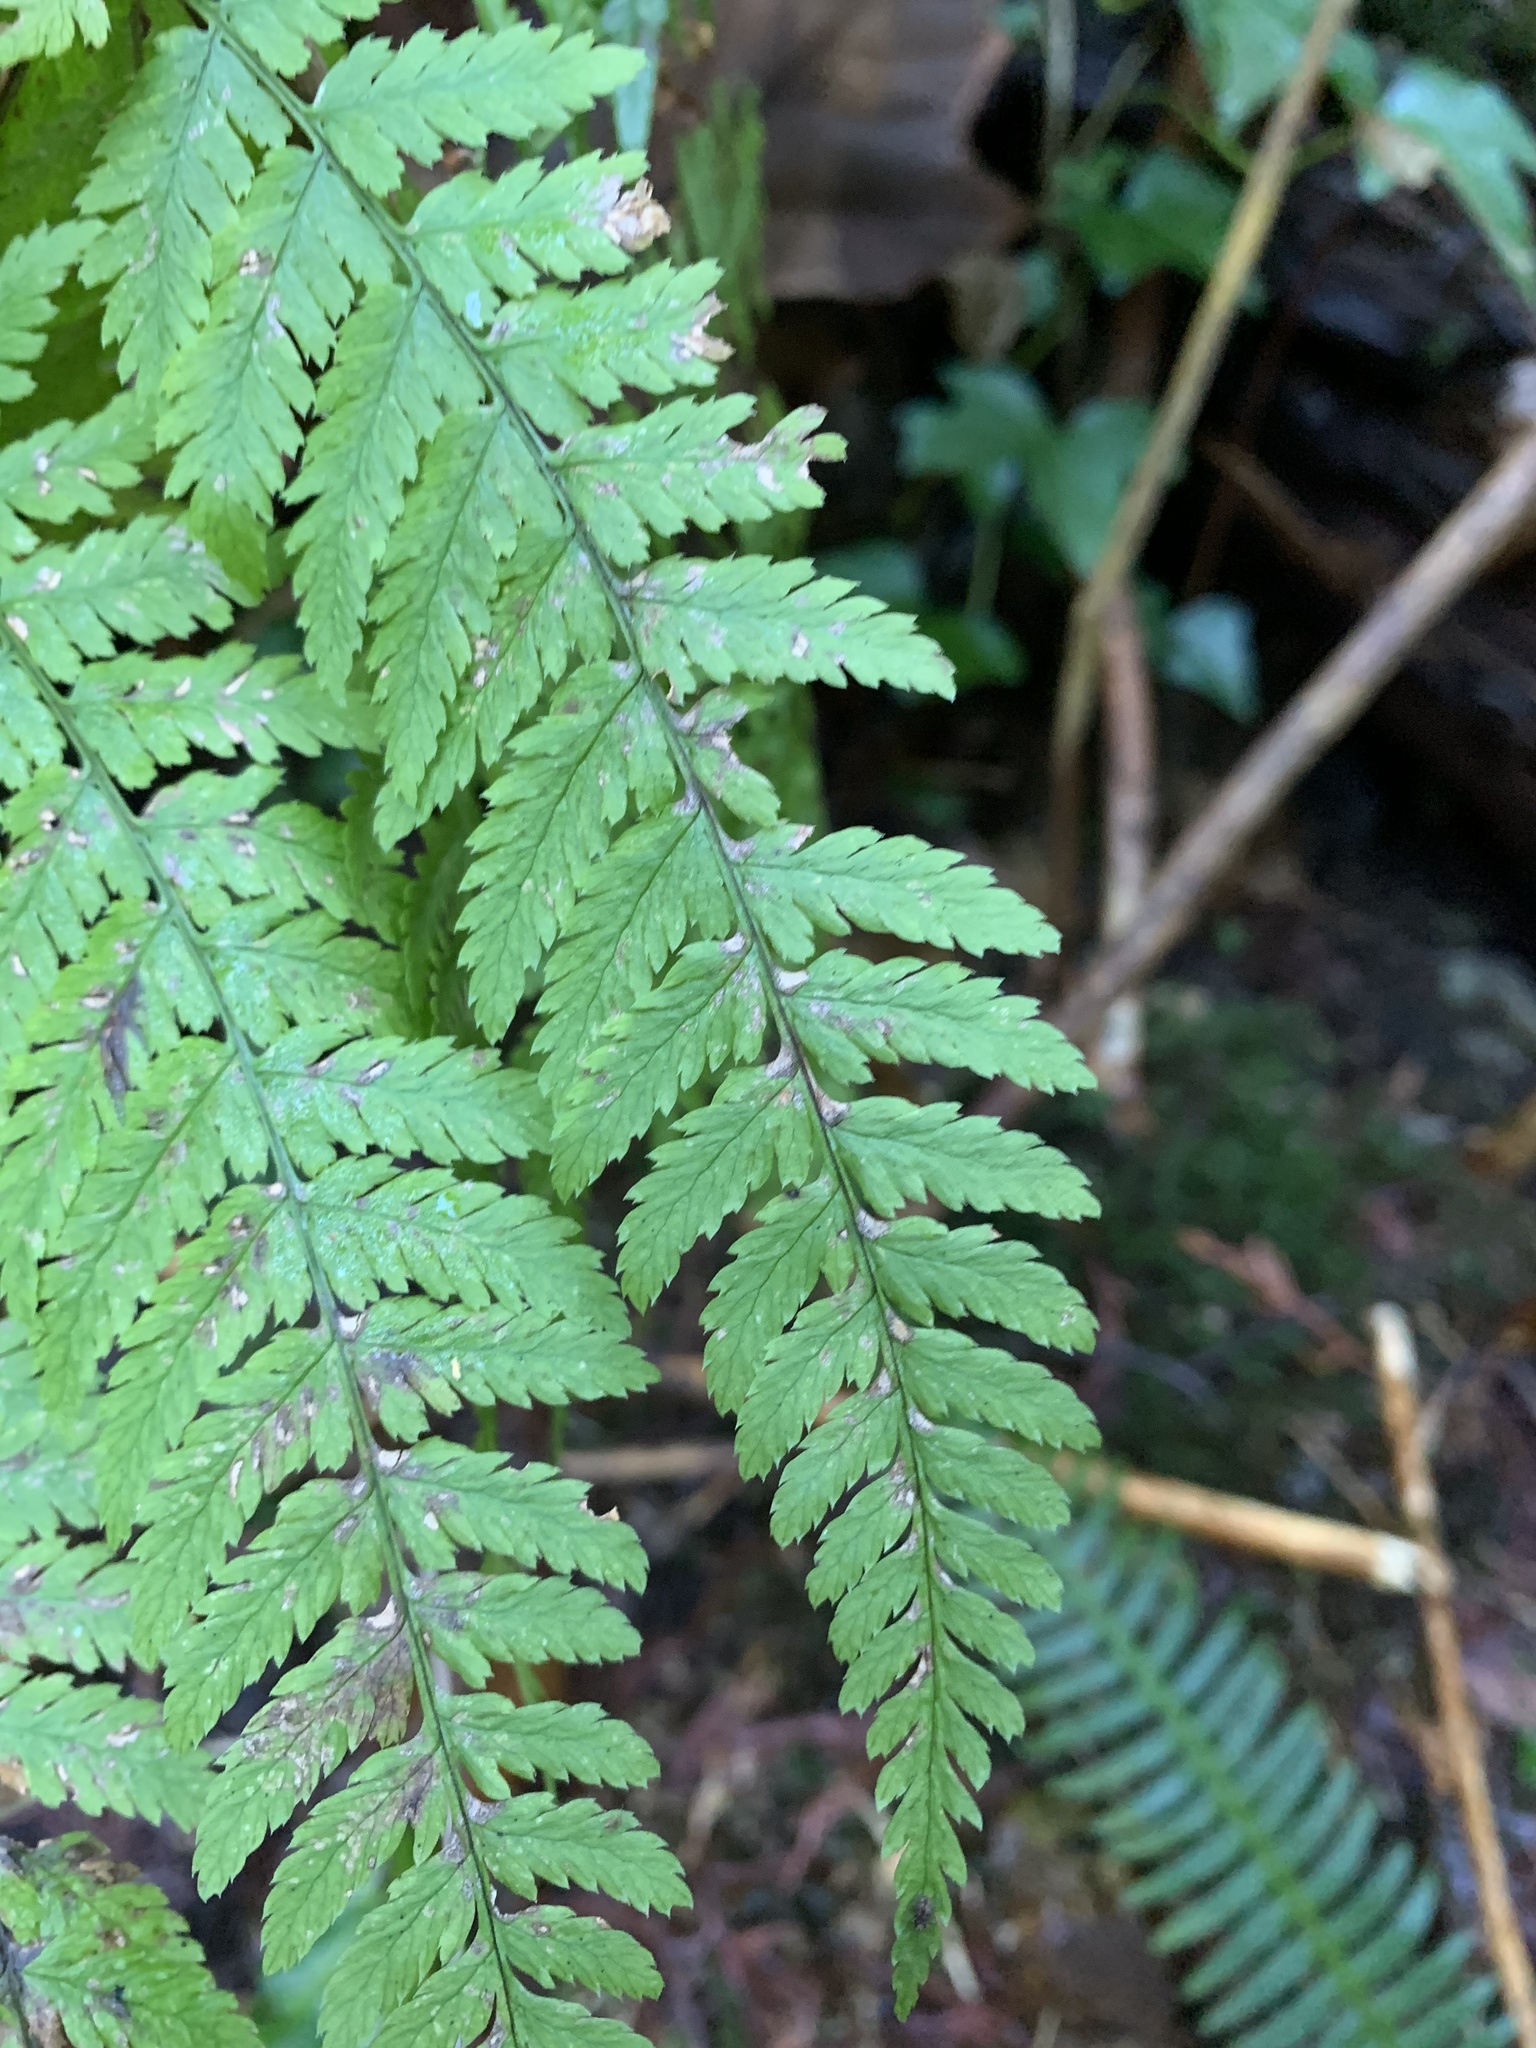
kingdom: Plantae
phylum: Tracheophyta
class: Polypodiopsida
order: Polypodiales
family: Dryopteridaceae
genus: Dryopteris
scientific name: Dryopteris expansa
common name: Northern buckler fern
